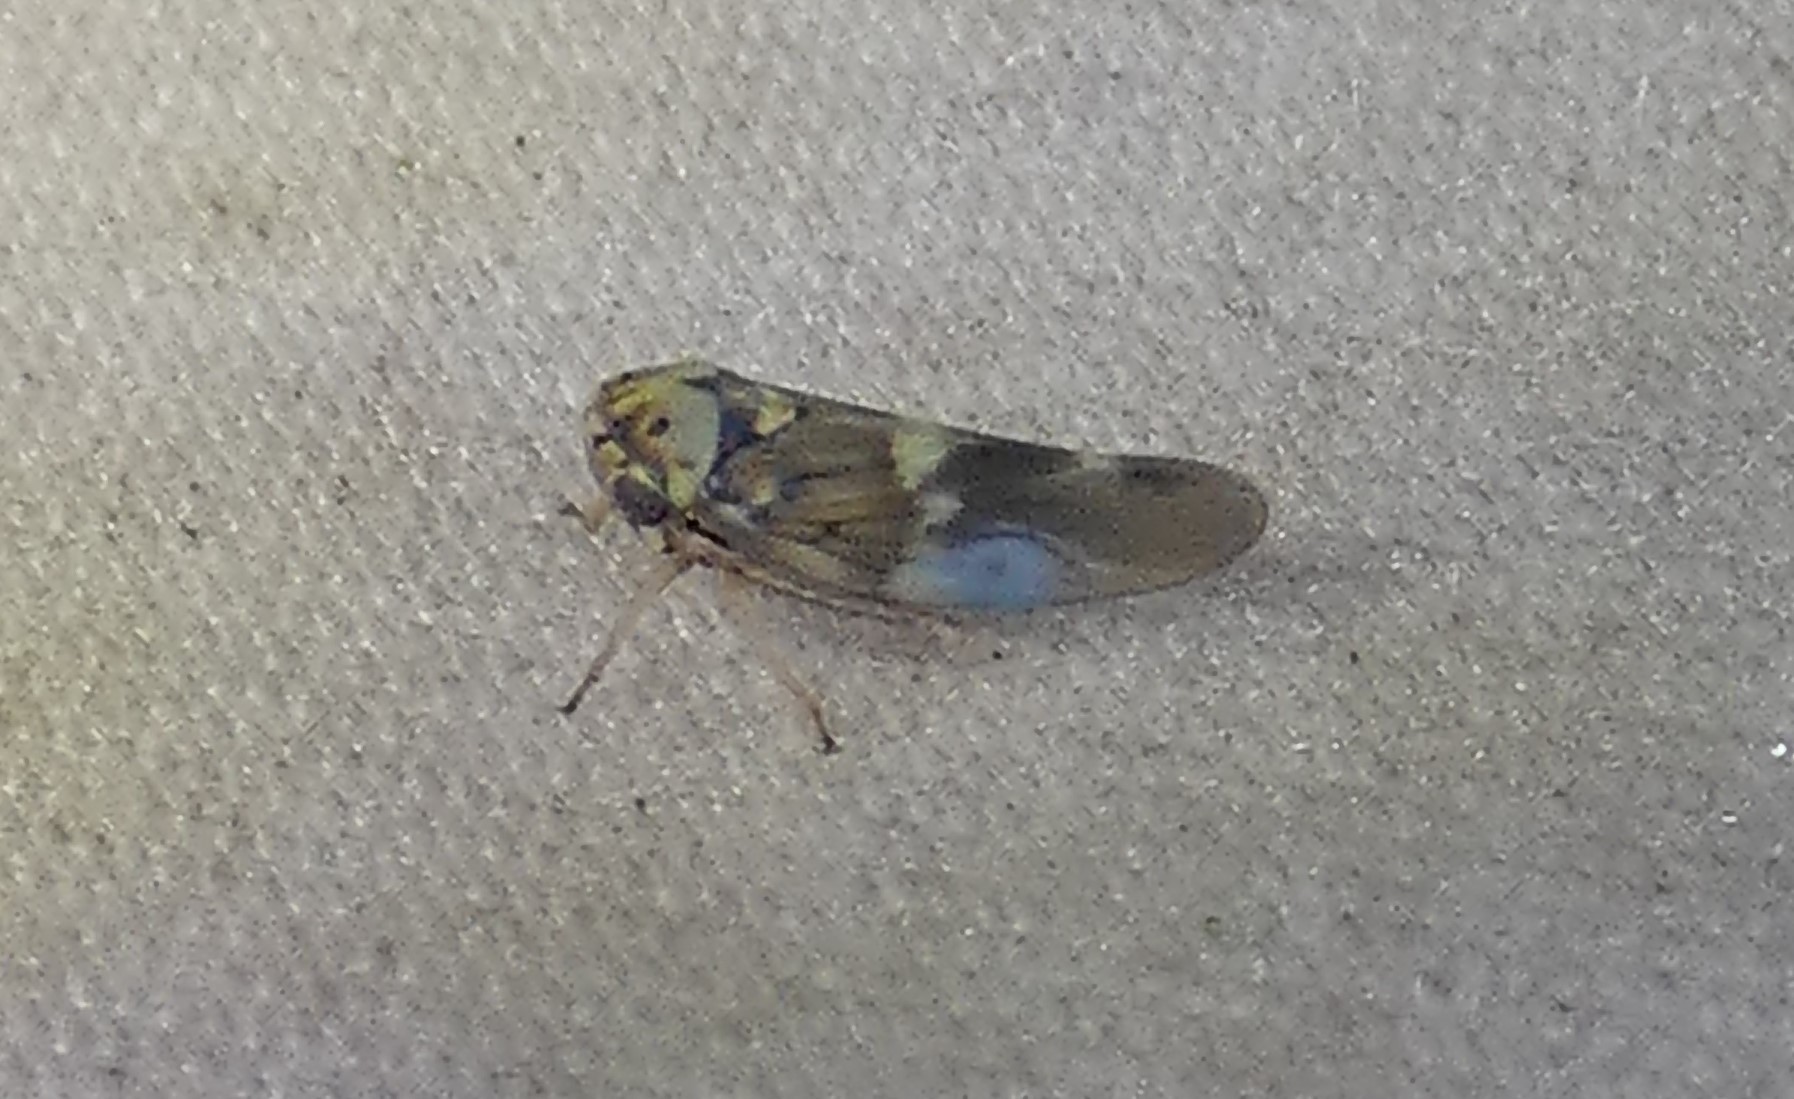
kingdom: Animalia
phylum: Arthropoda
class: Insecta
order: Hemiptera
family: Cicadellidae
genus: Agalliopsis
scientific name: Agalliopsis cervina
